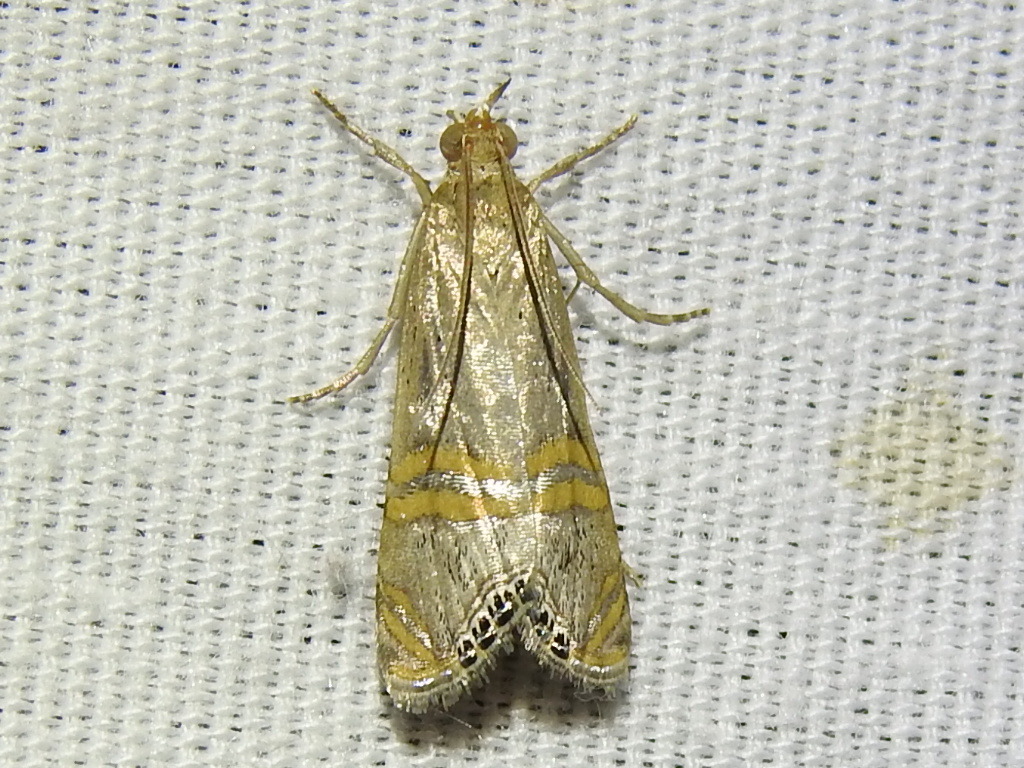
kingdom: Animalia
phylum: Arthropoda
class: Insecta
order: Lepidoptera
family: Crambidae
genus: Euchromius
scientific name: Euchromius ocellea
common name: Necklace veneer moth
